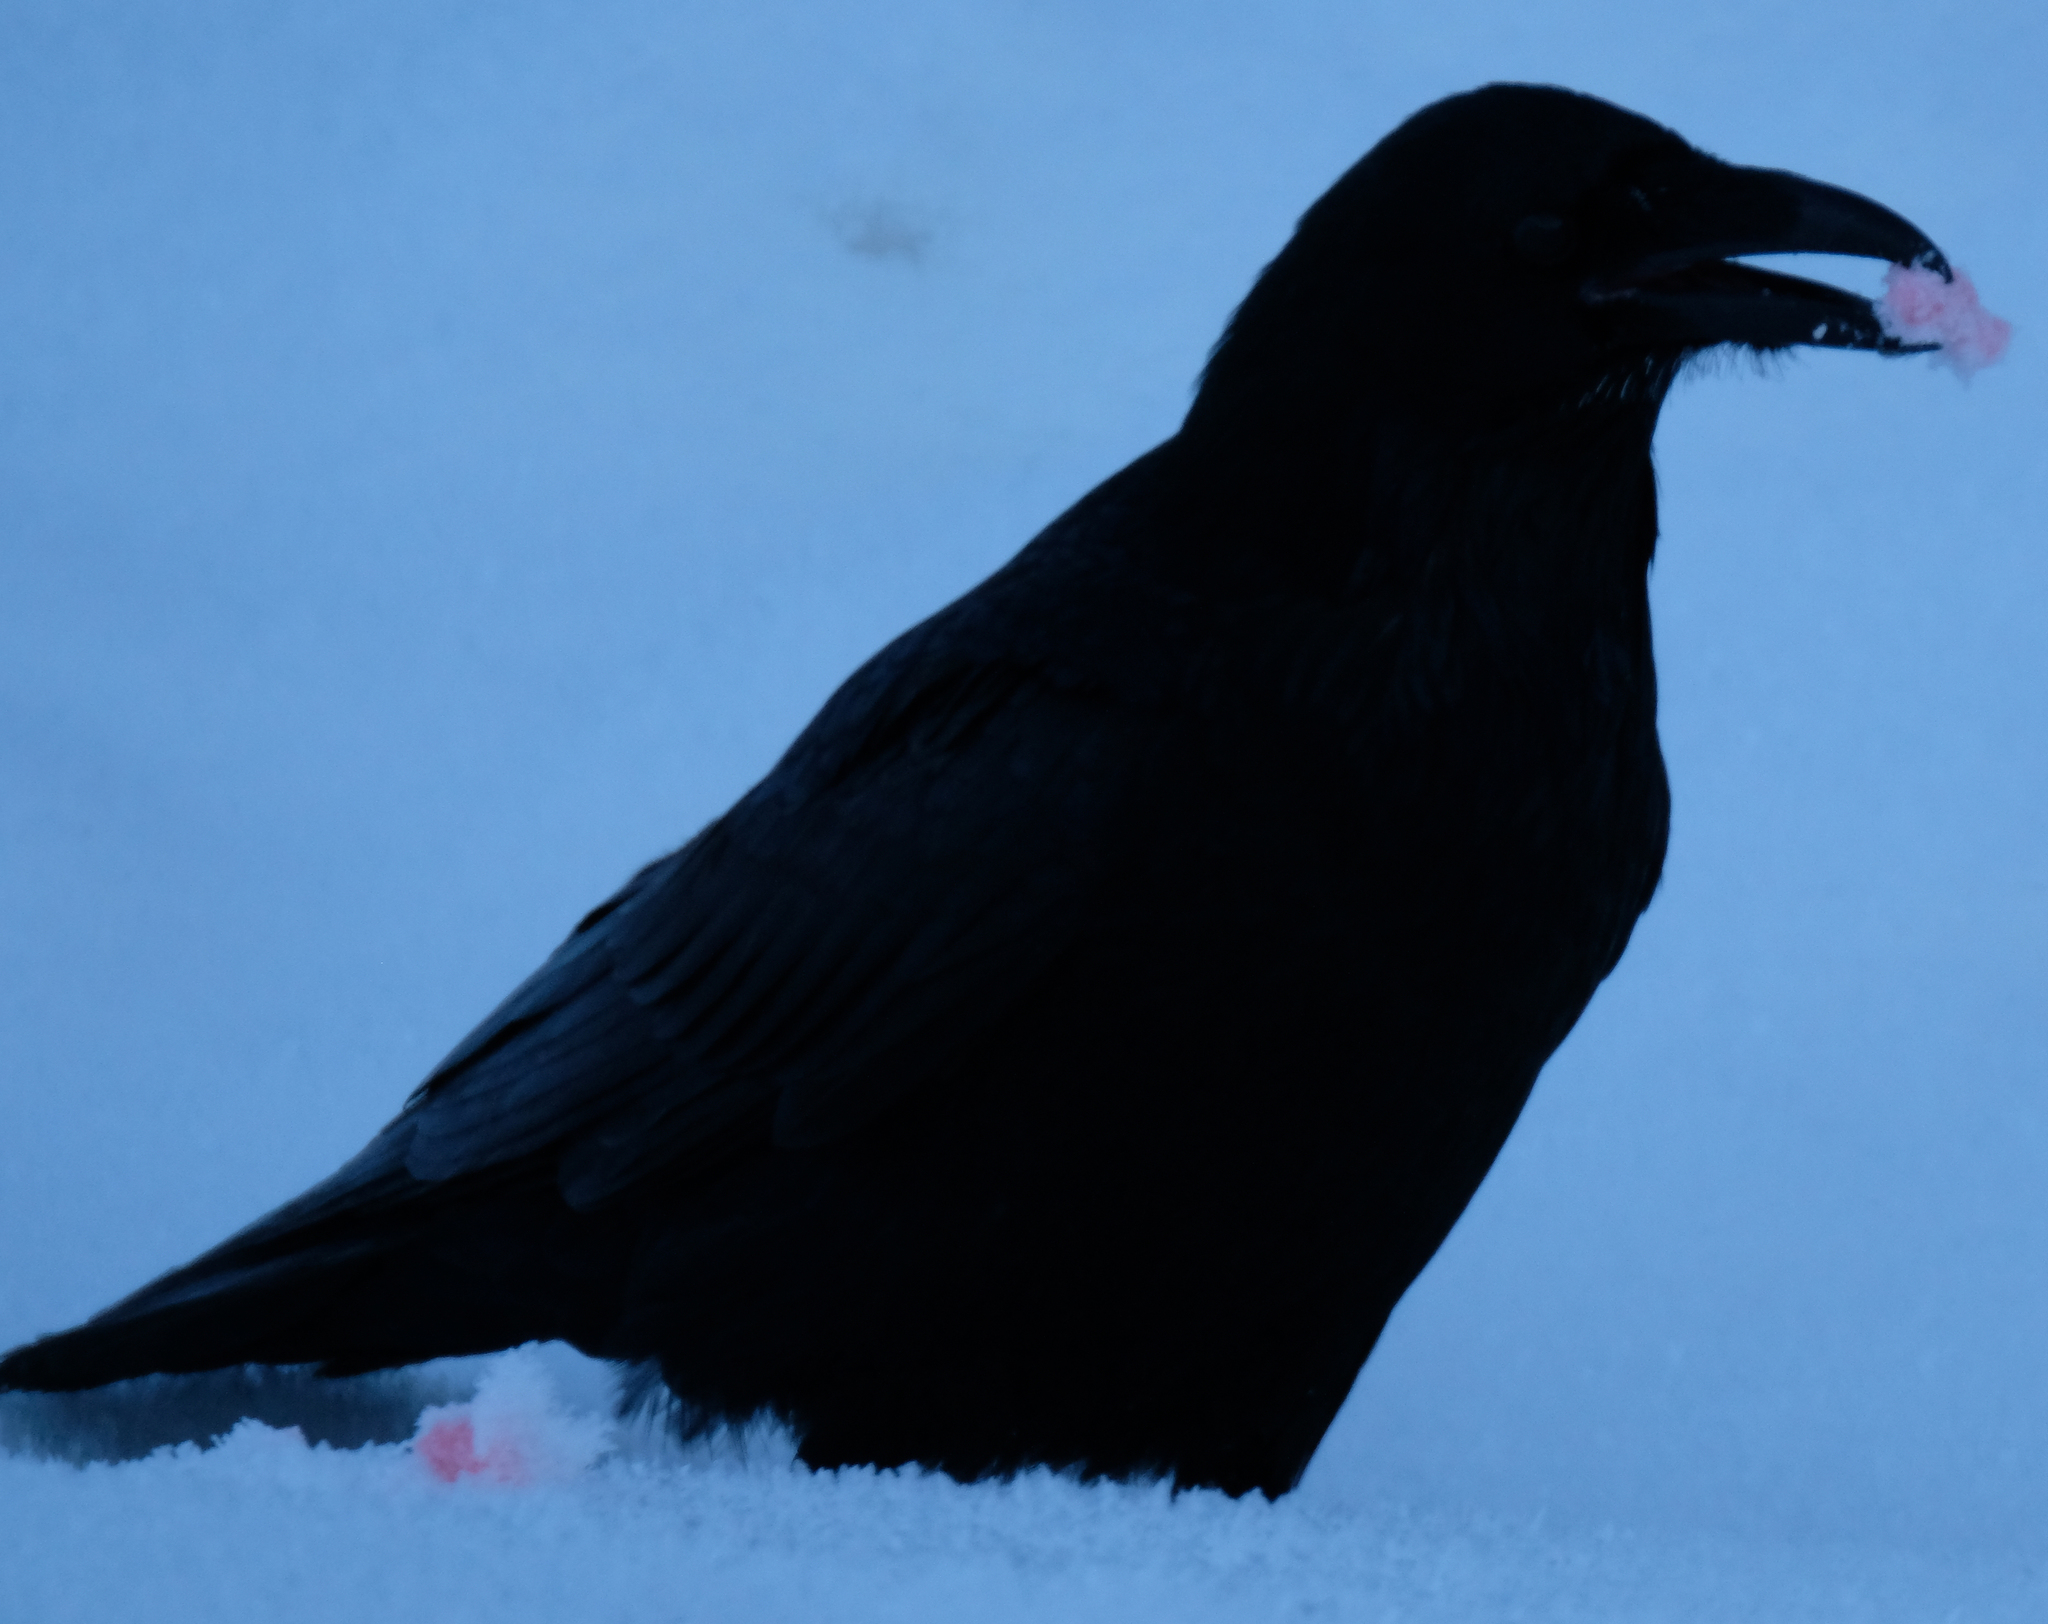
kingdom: Animalia
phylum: Chordata
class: Aves
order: Passeriformes
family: Corvidae
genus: Corvus
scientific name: Corvus corax
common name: Common raven
